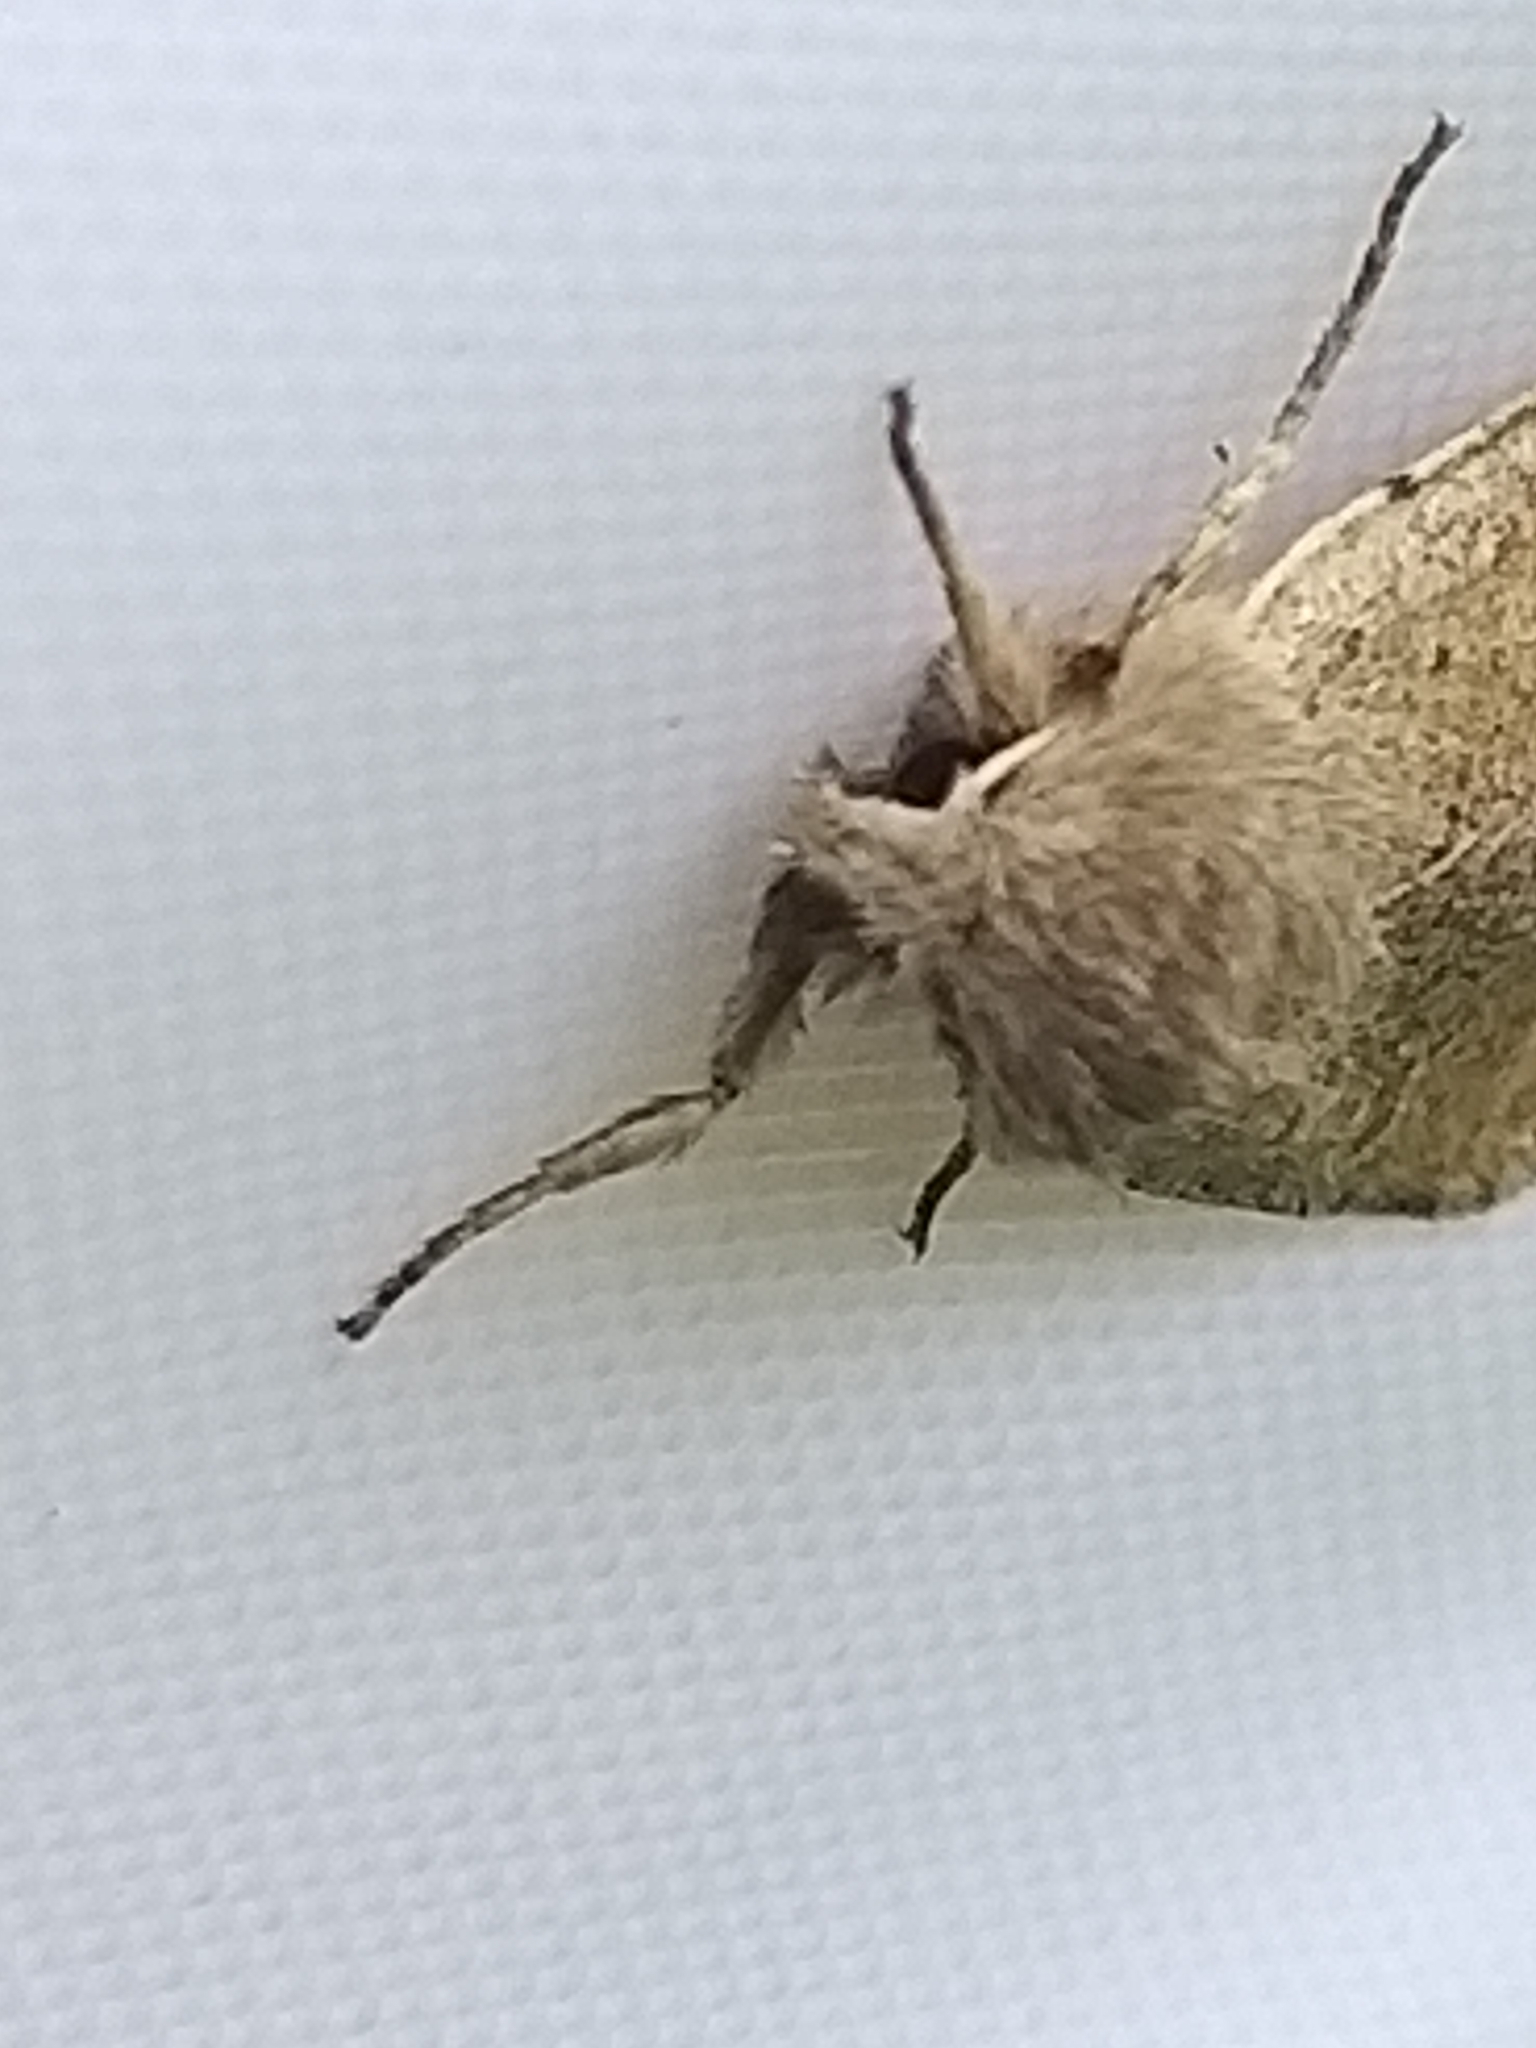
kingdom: Animalia
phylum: Arthropoda
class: Insecta
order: Lepidoptera
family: Noctuidae
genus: Orthosia
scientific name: Orthosia cruda
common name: Small quaker
